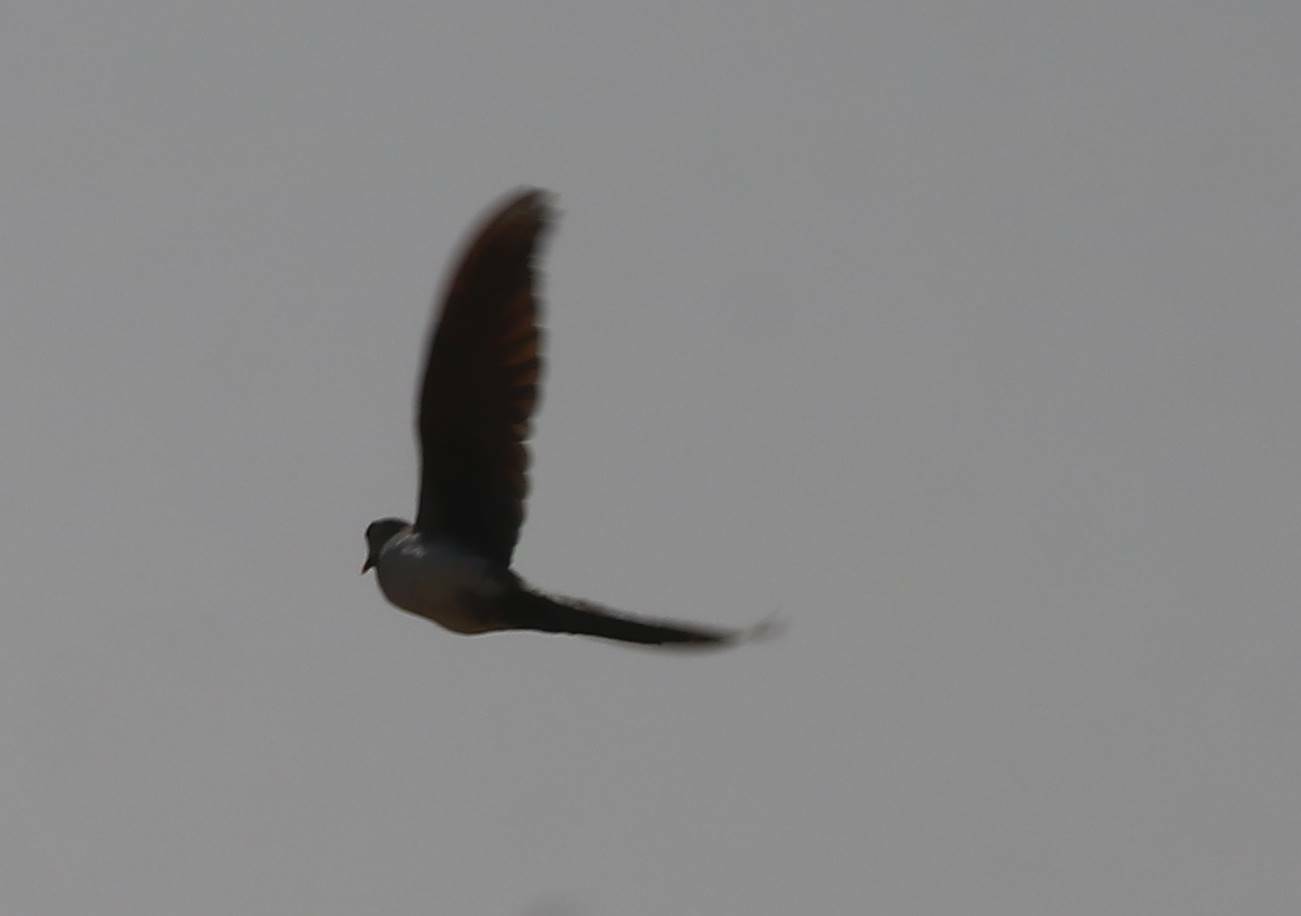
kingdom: Animalia
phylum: Chordata
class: Aves
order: Columbiformes
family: Columbidae
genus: Oena
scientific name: Oena capensis
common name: Namaqua dove
